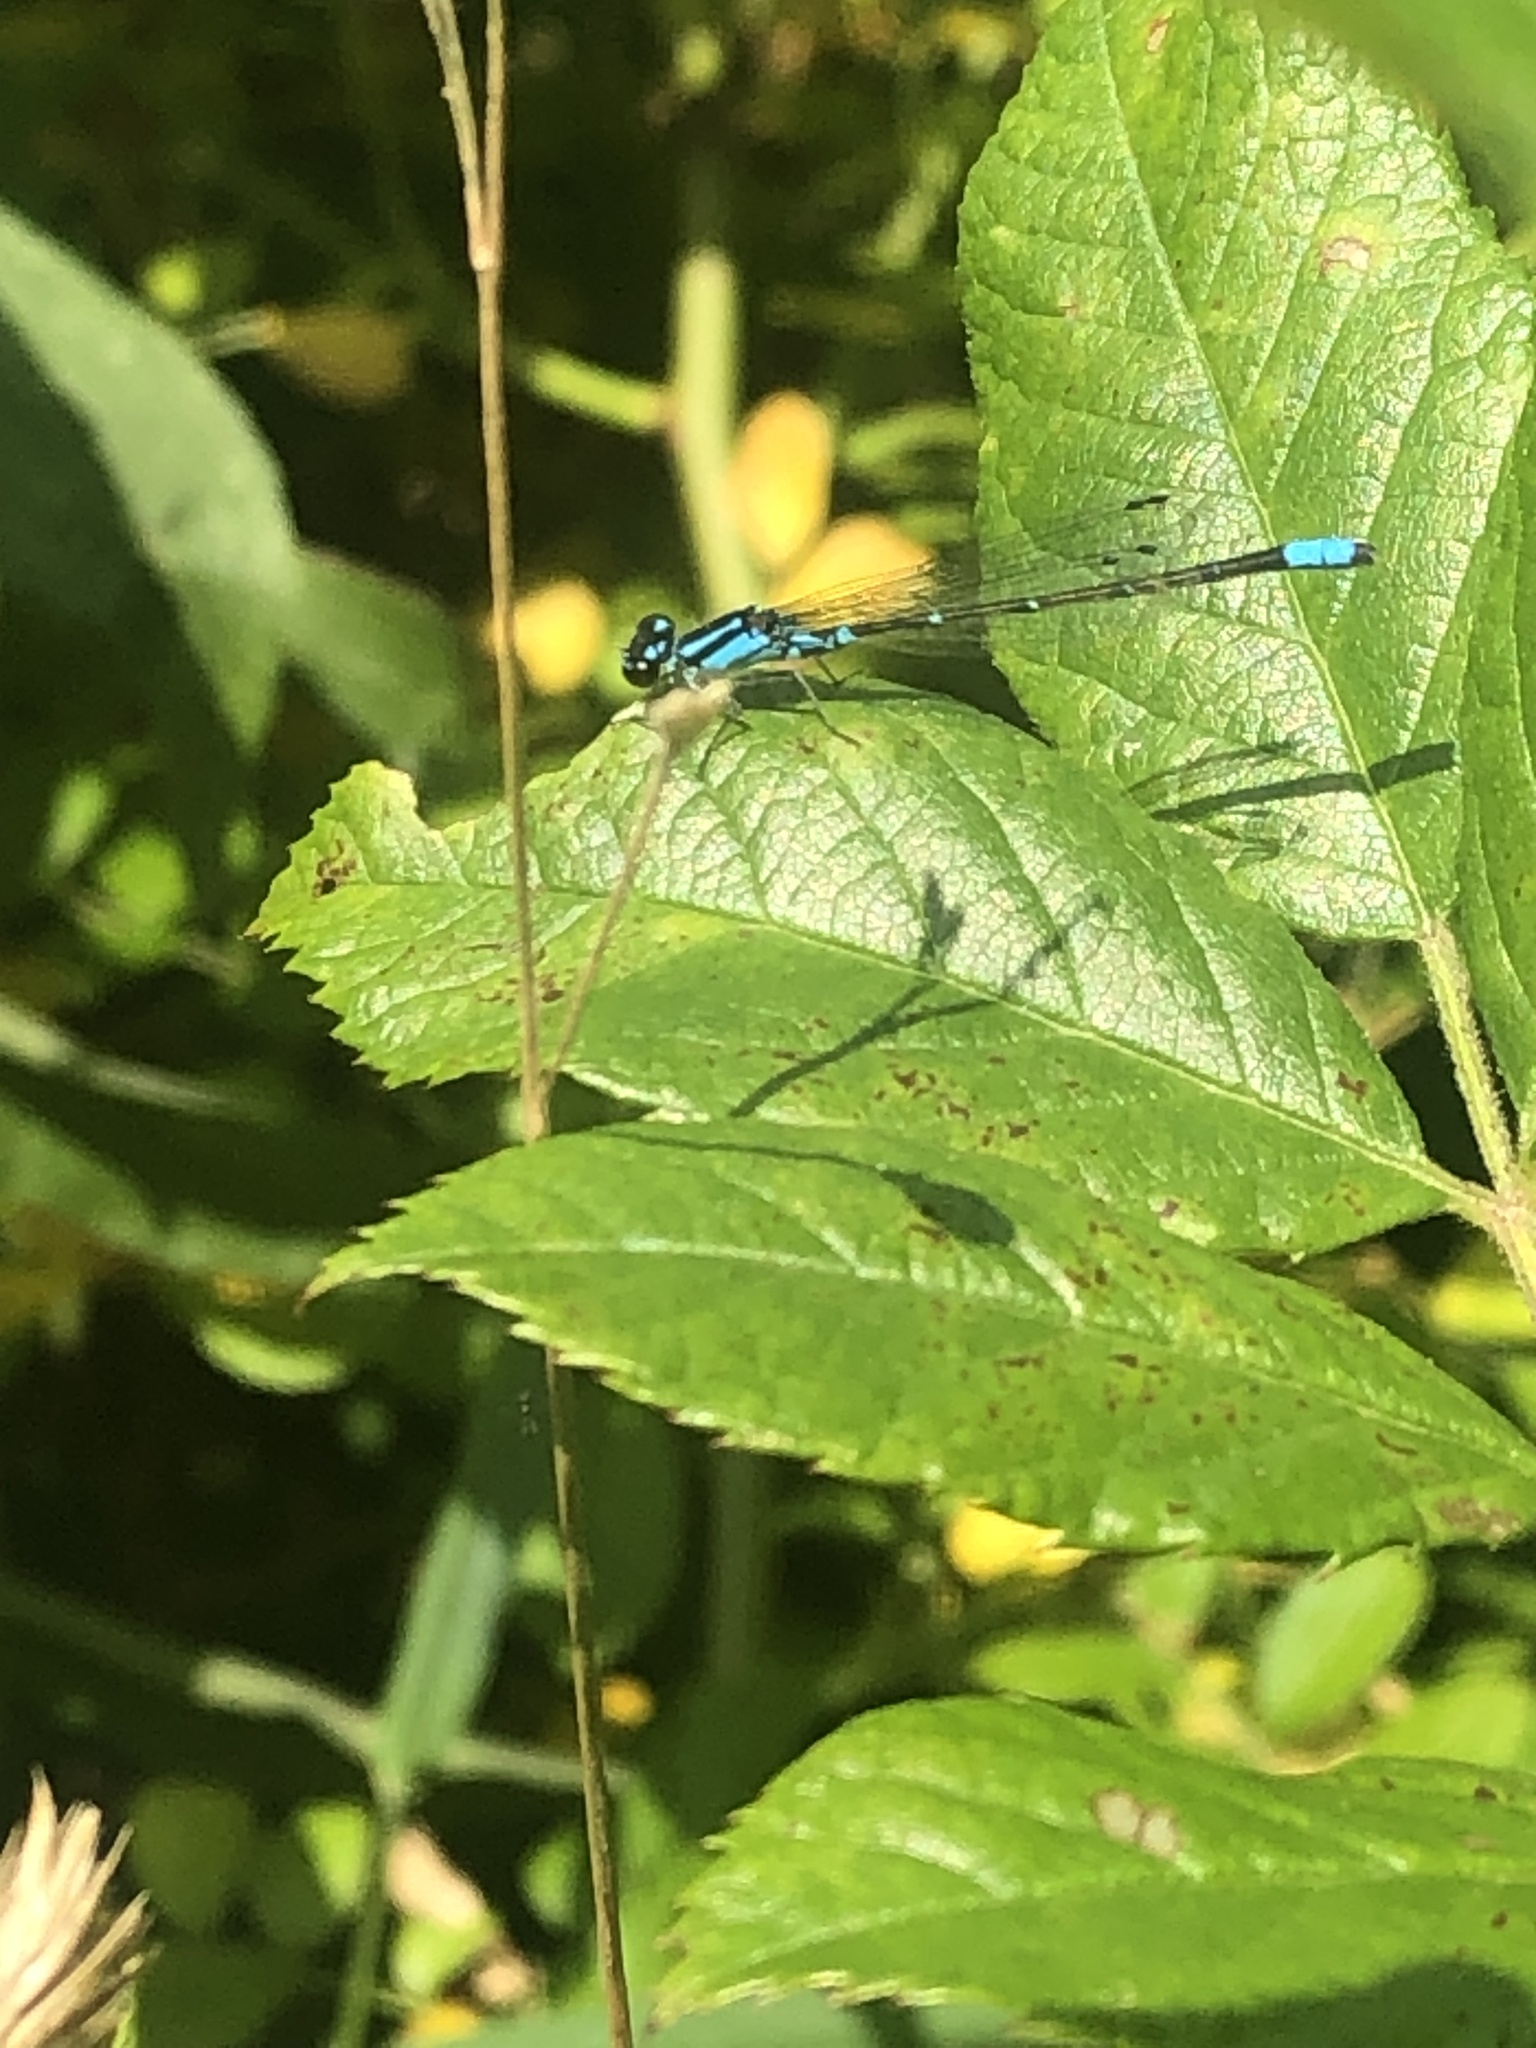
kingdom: Animalia
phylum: Arthropoda
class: Insecta
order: Odonata
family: Coenagrionidae
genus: Enallagma
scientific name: Enallagma geminatum
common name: Skimming bluet
